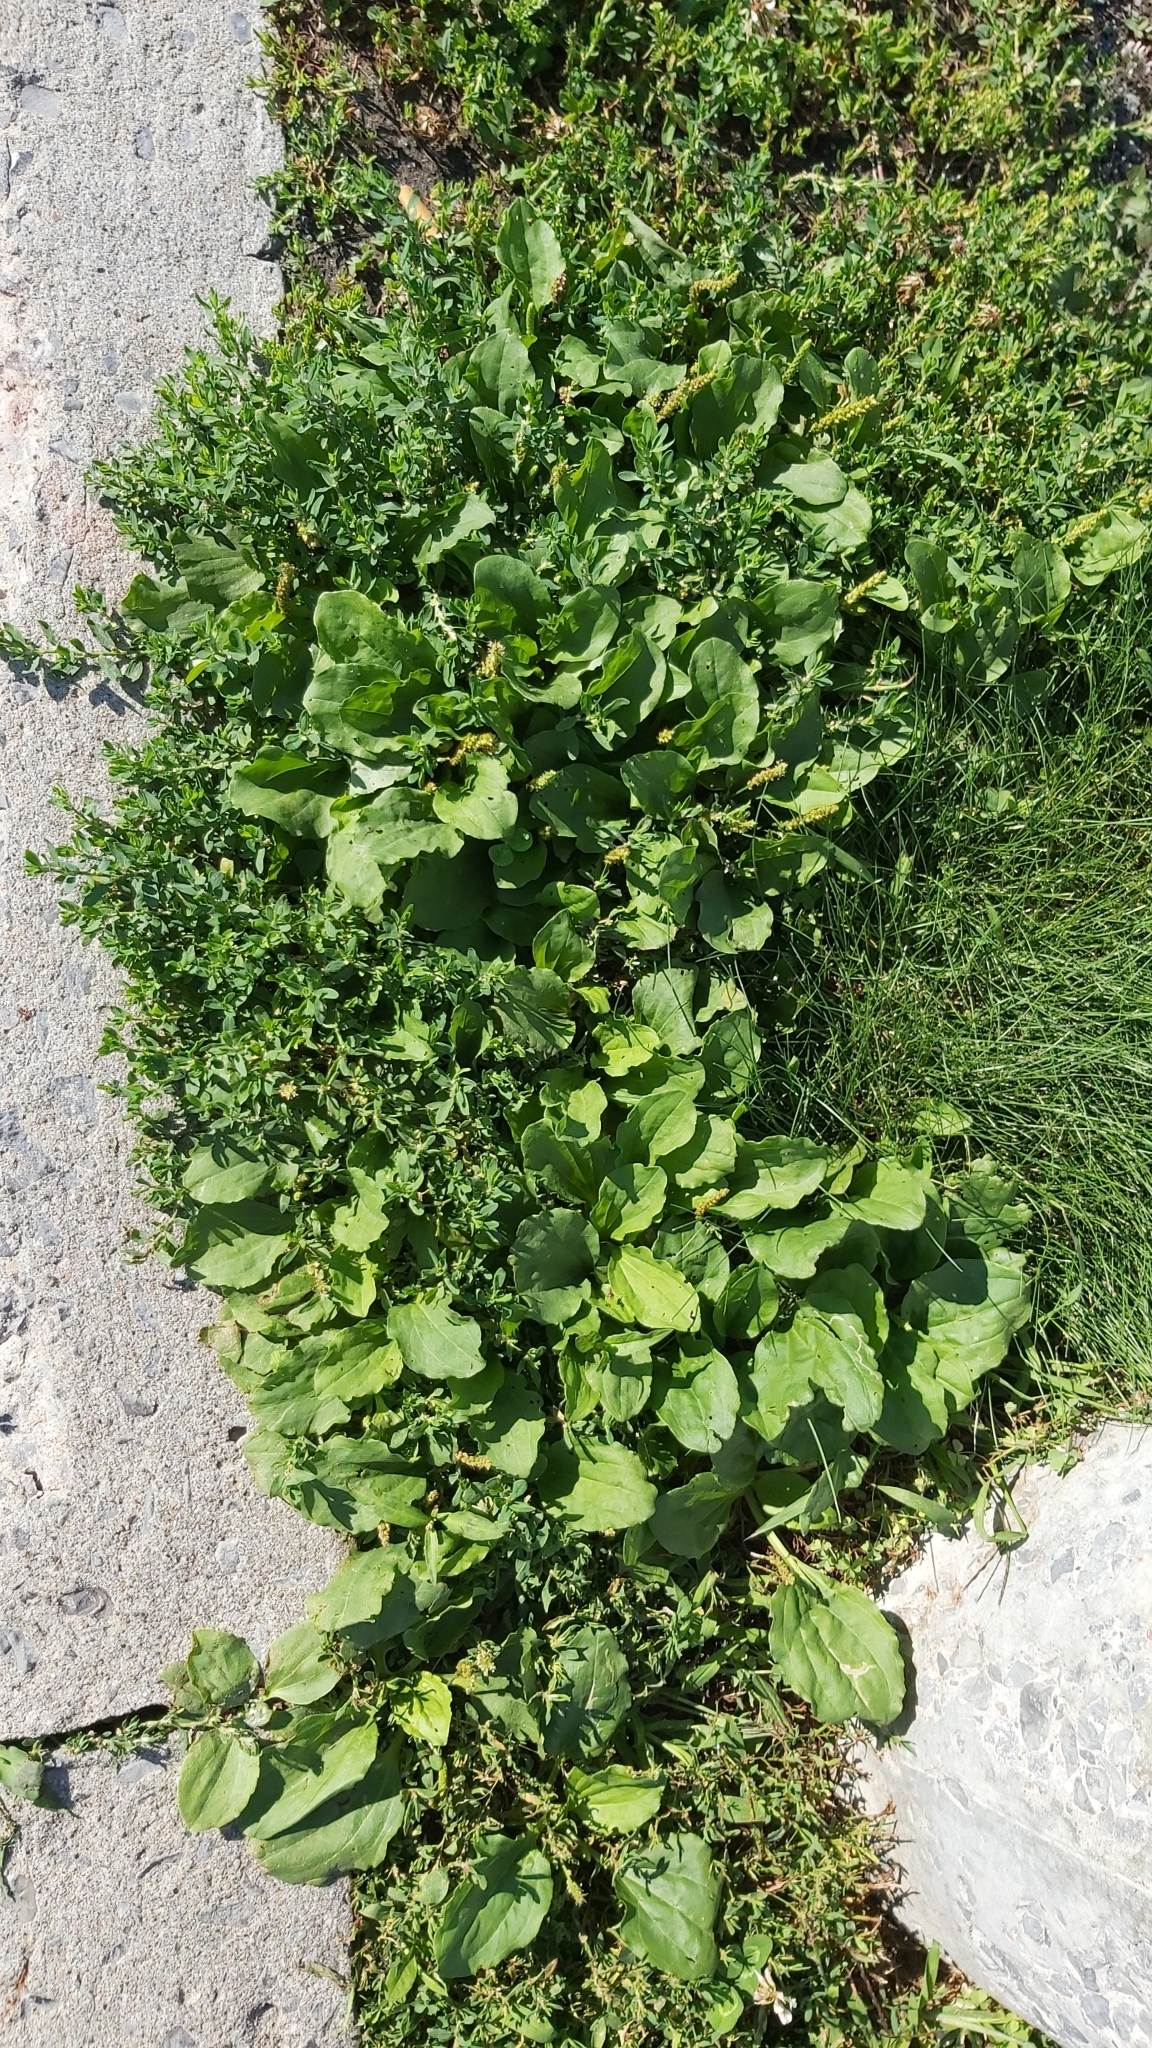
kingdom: Plantae
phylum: Tracheophyta
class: Magnoliopsida
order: Lamiales
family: Plantaginaceae
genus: Plantago
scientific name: Plantago major
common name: Common plantain
